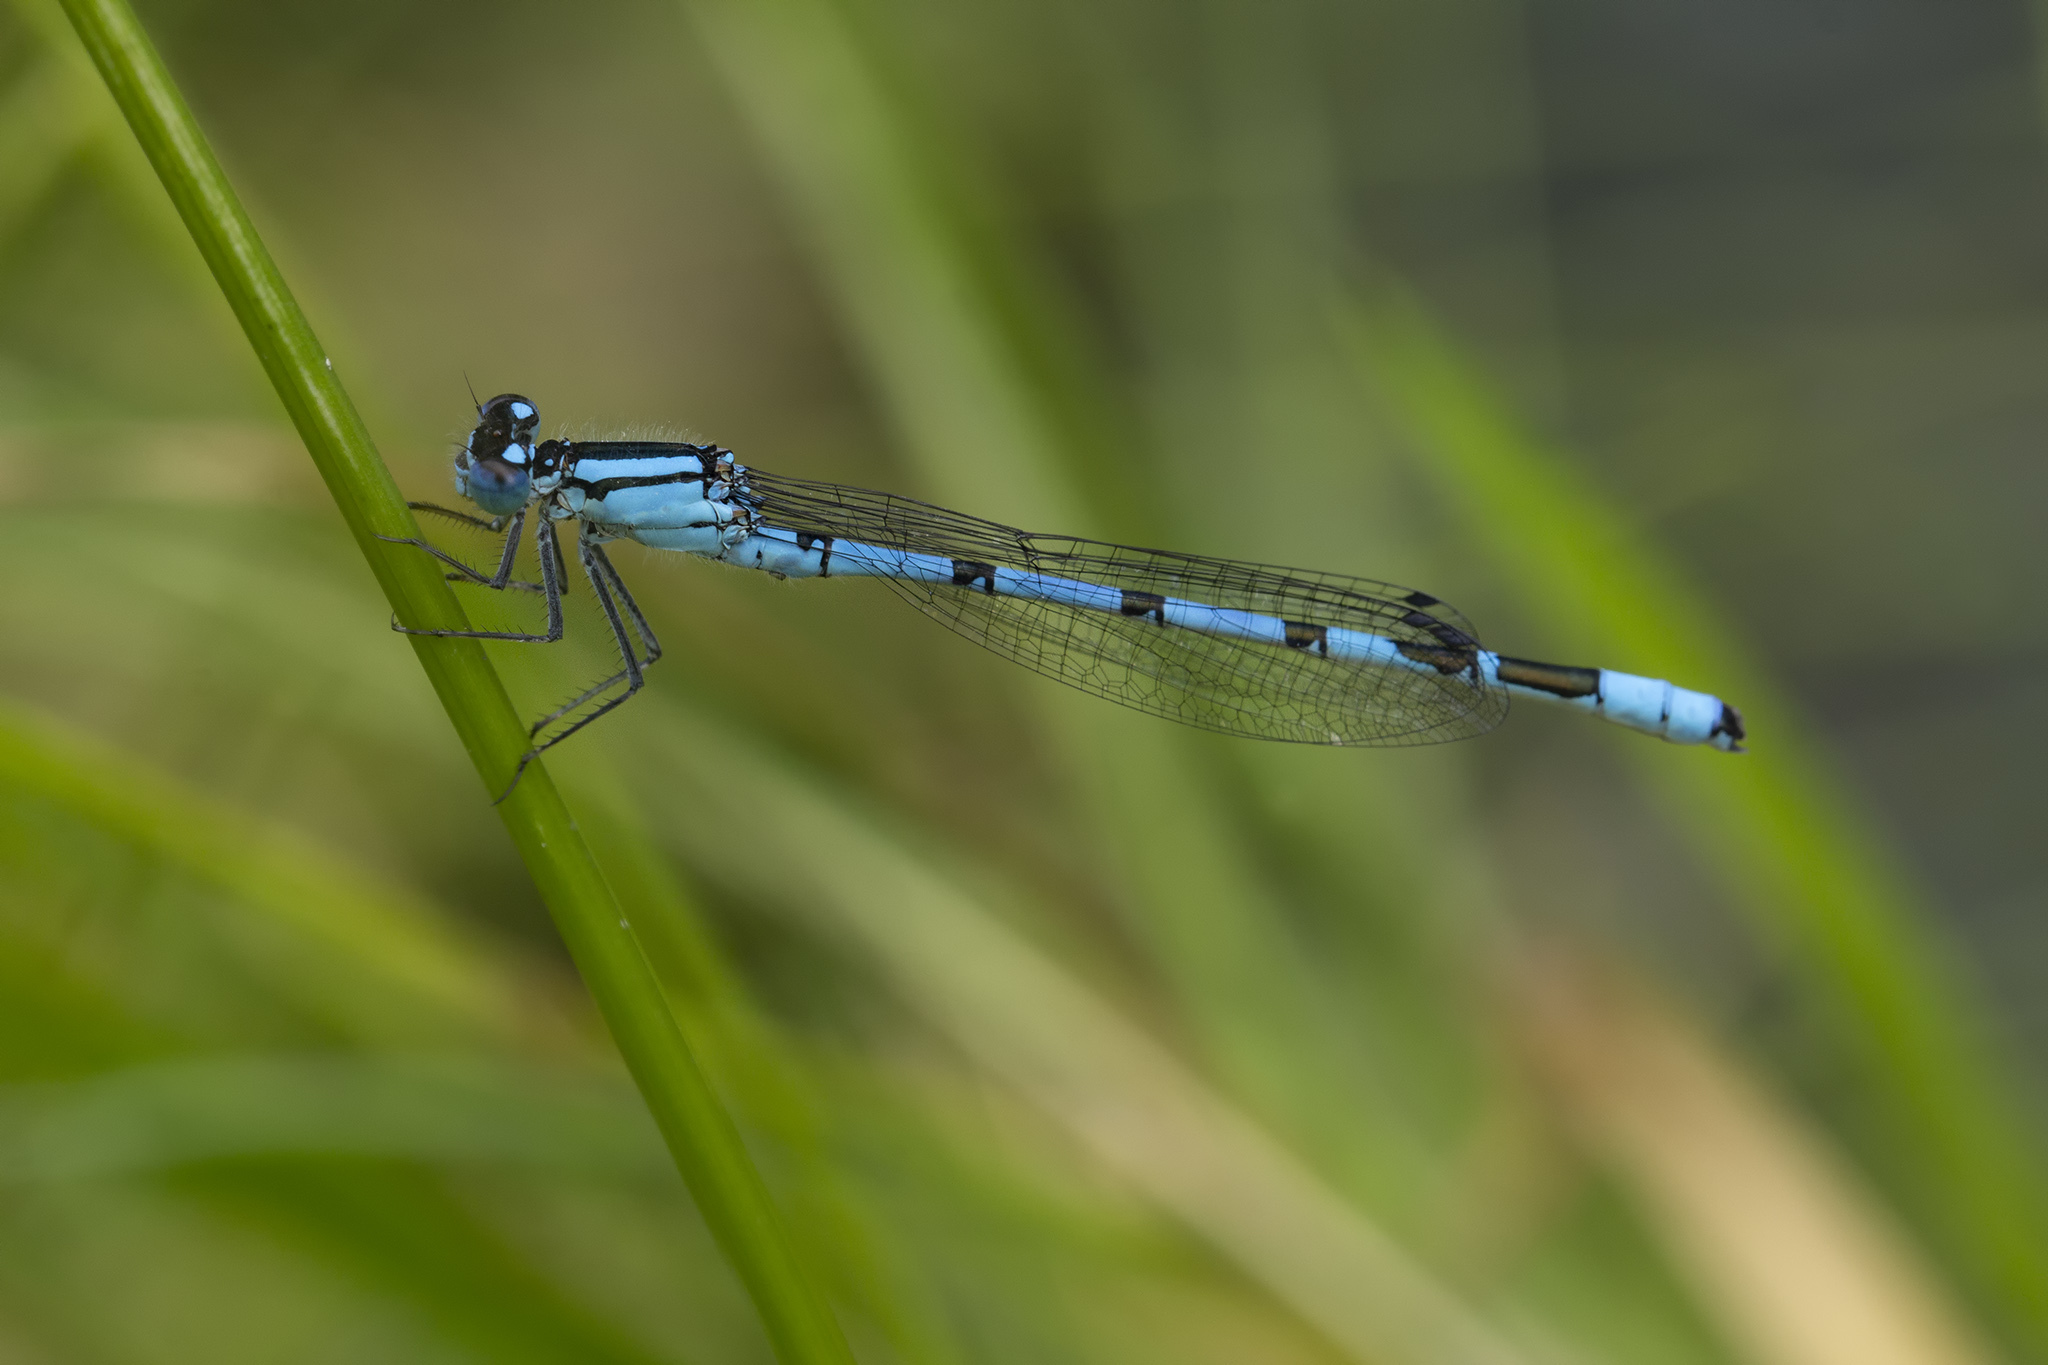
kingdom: Animalia
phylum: Arthropoda
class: Insecta
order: Odonata
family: Coenagrionidae
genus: Enallagma
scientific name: Enallagma cyathigerum
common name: Common blue damselfly
